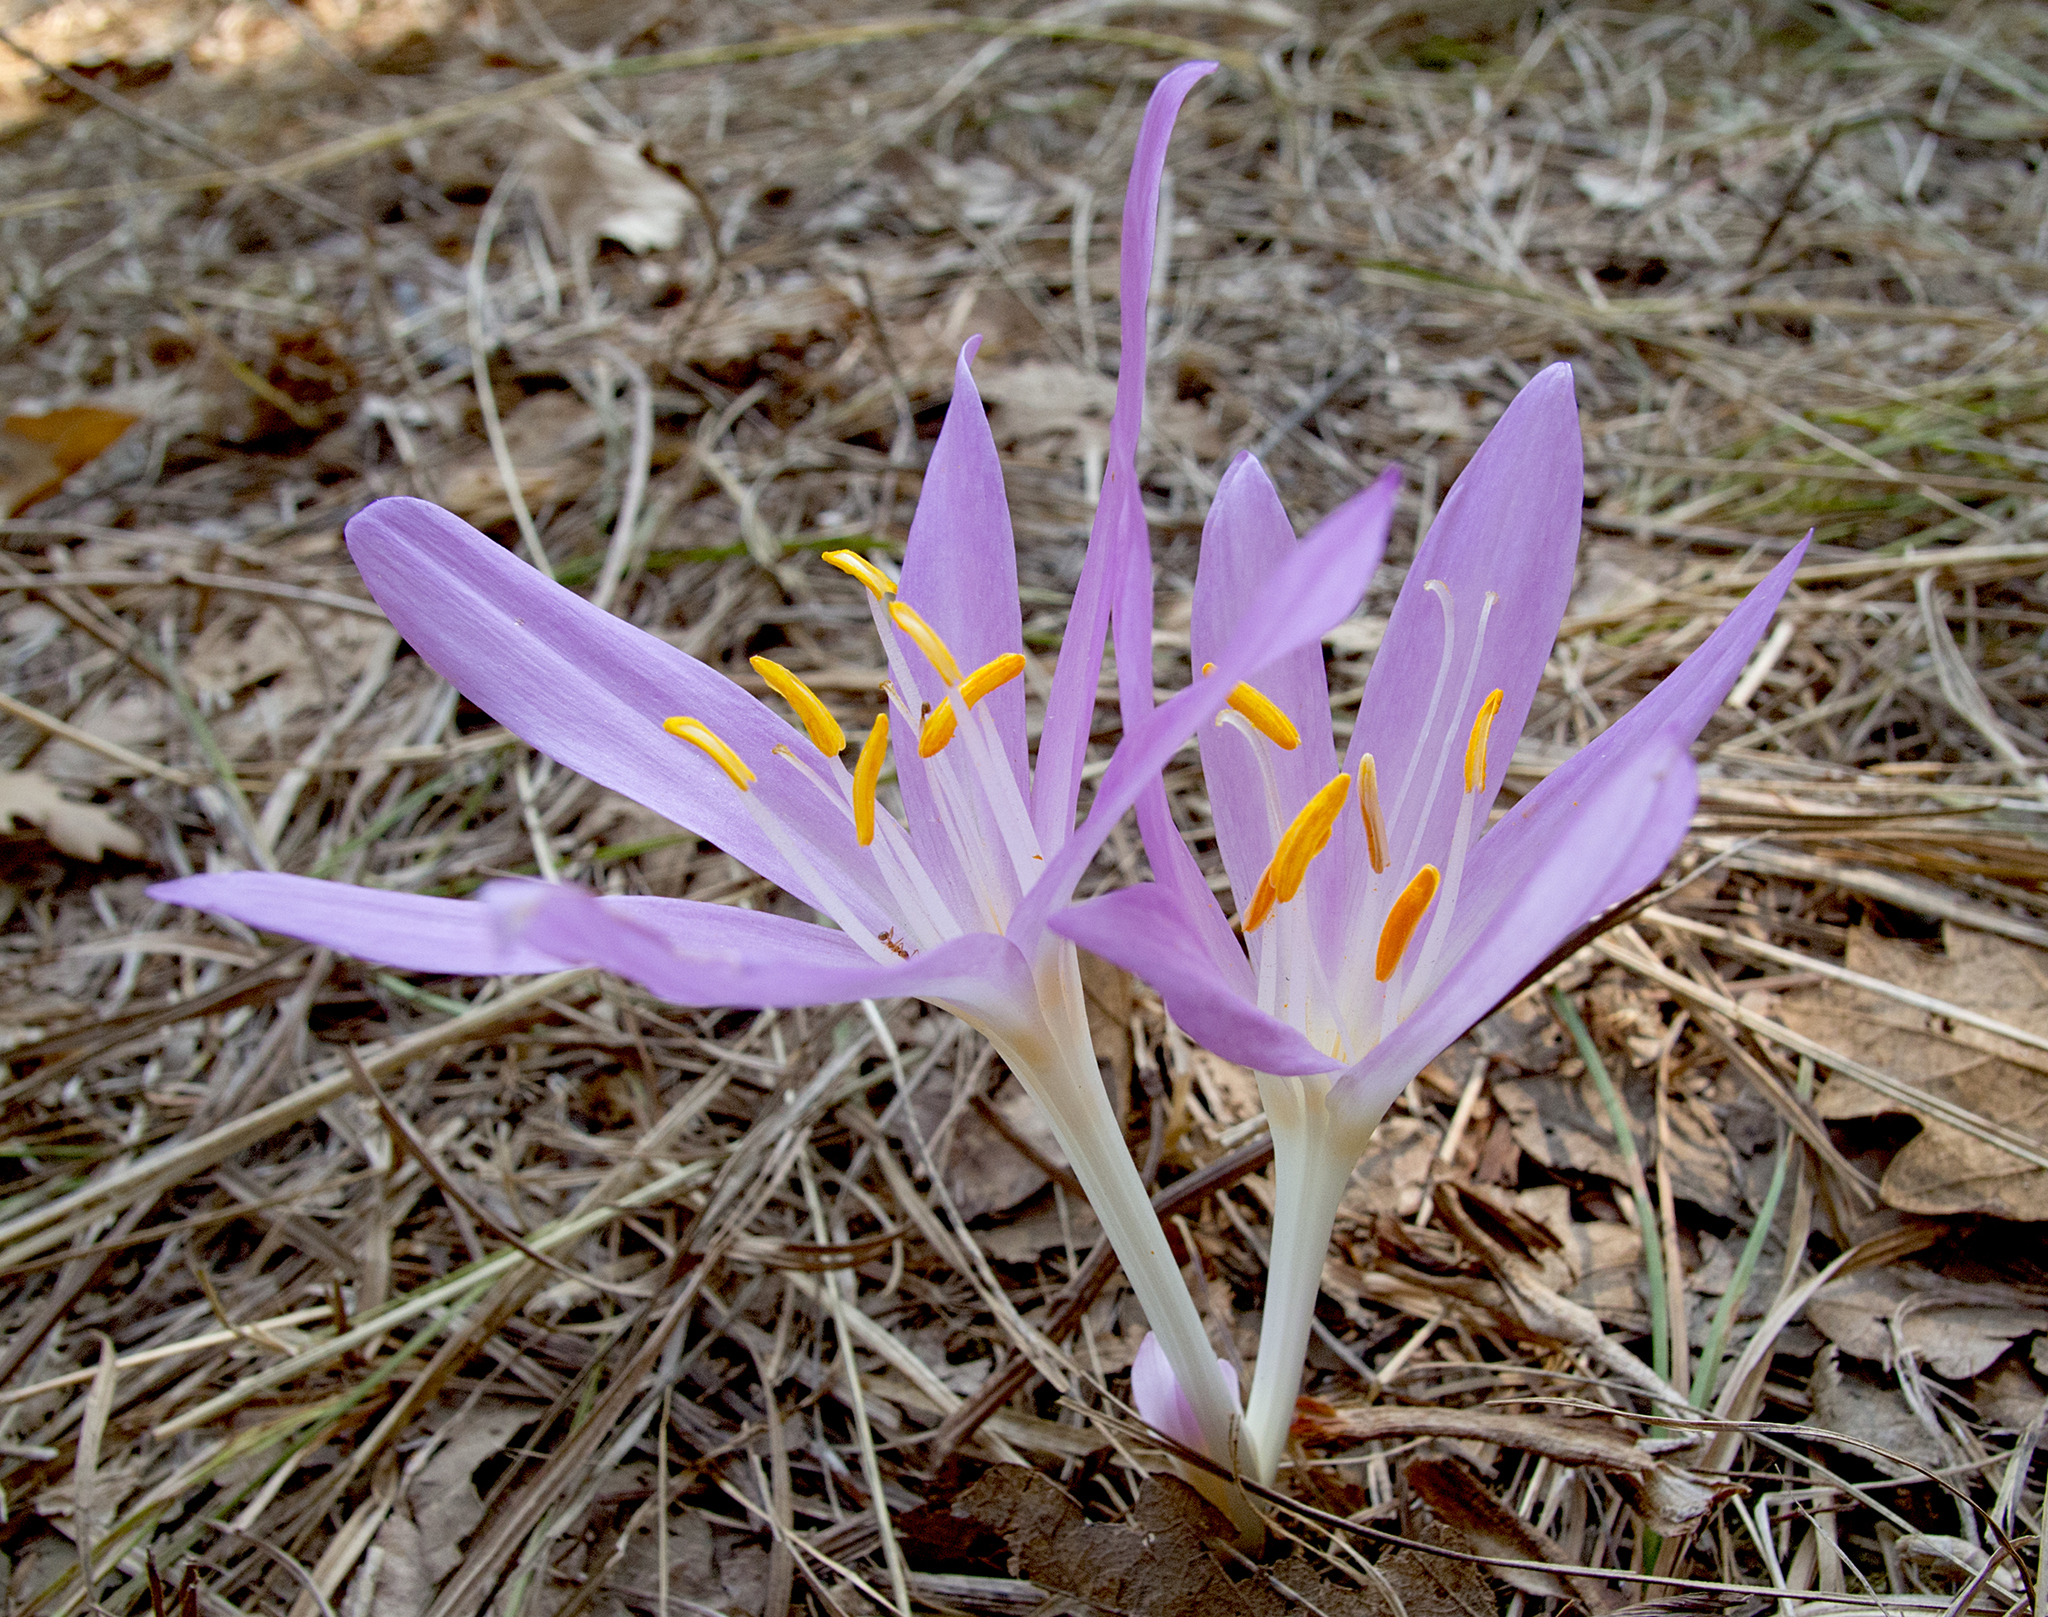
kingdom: Plantae
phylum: Tracheophyta
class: Liliopsida
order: Liliales
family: Colchicaceae
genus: Colchicum
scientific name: Colchicum autumnale
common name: Autumn crocus
